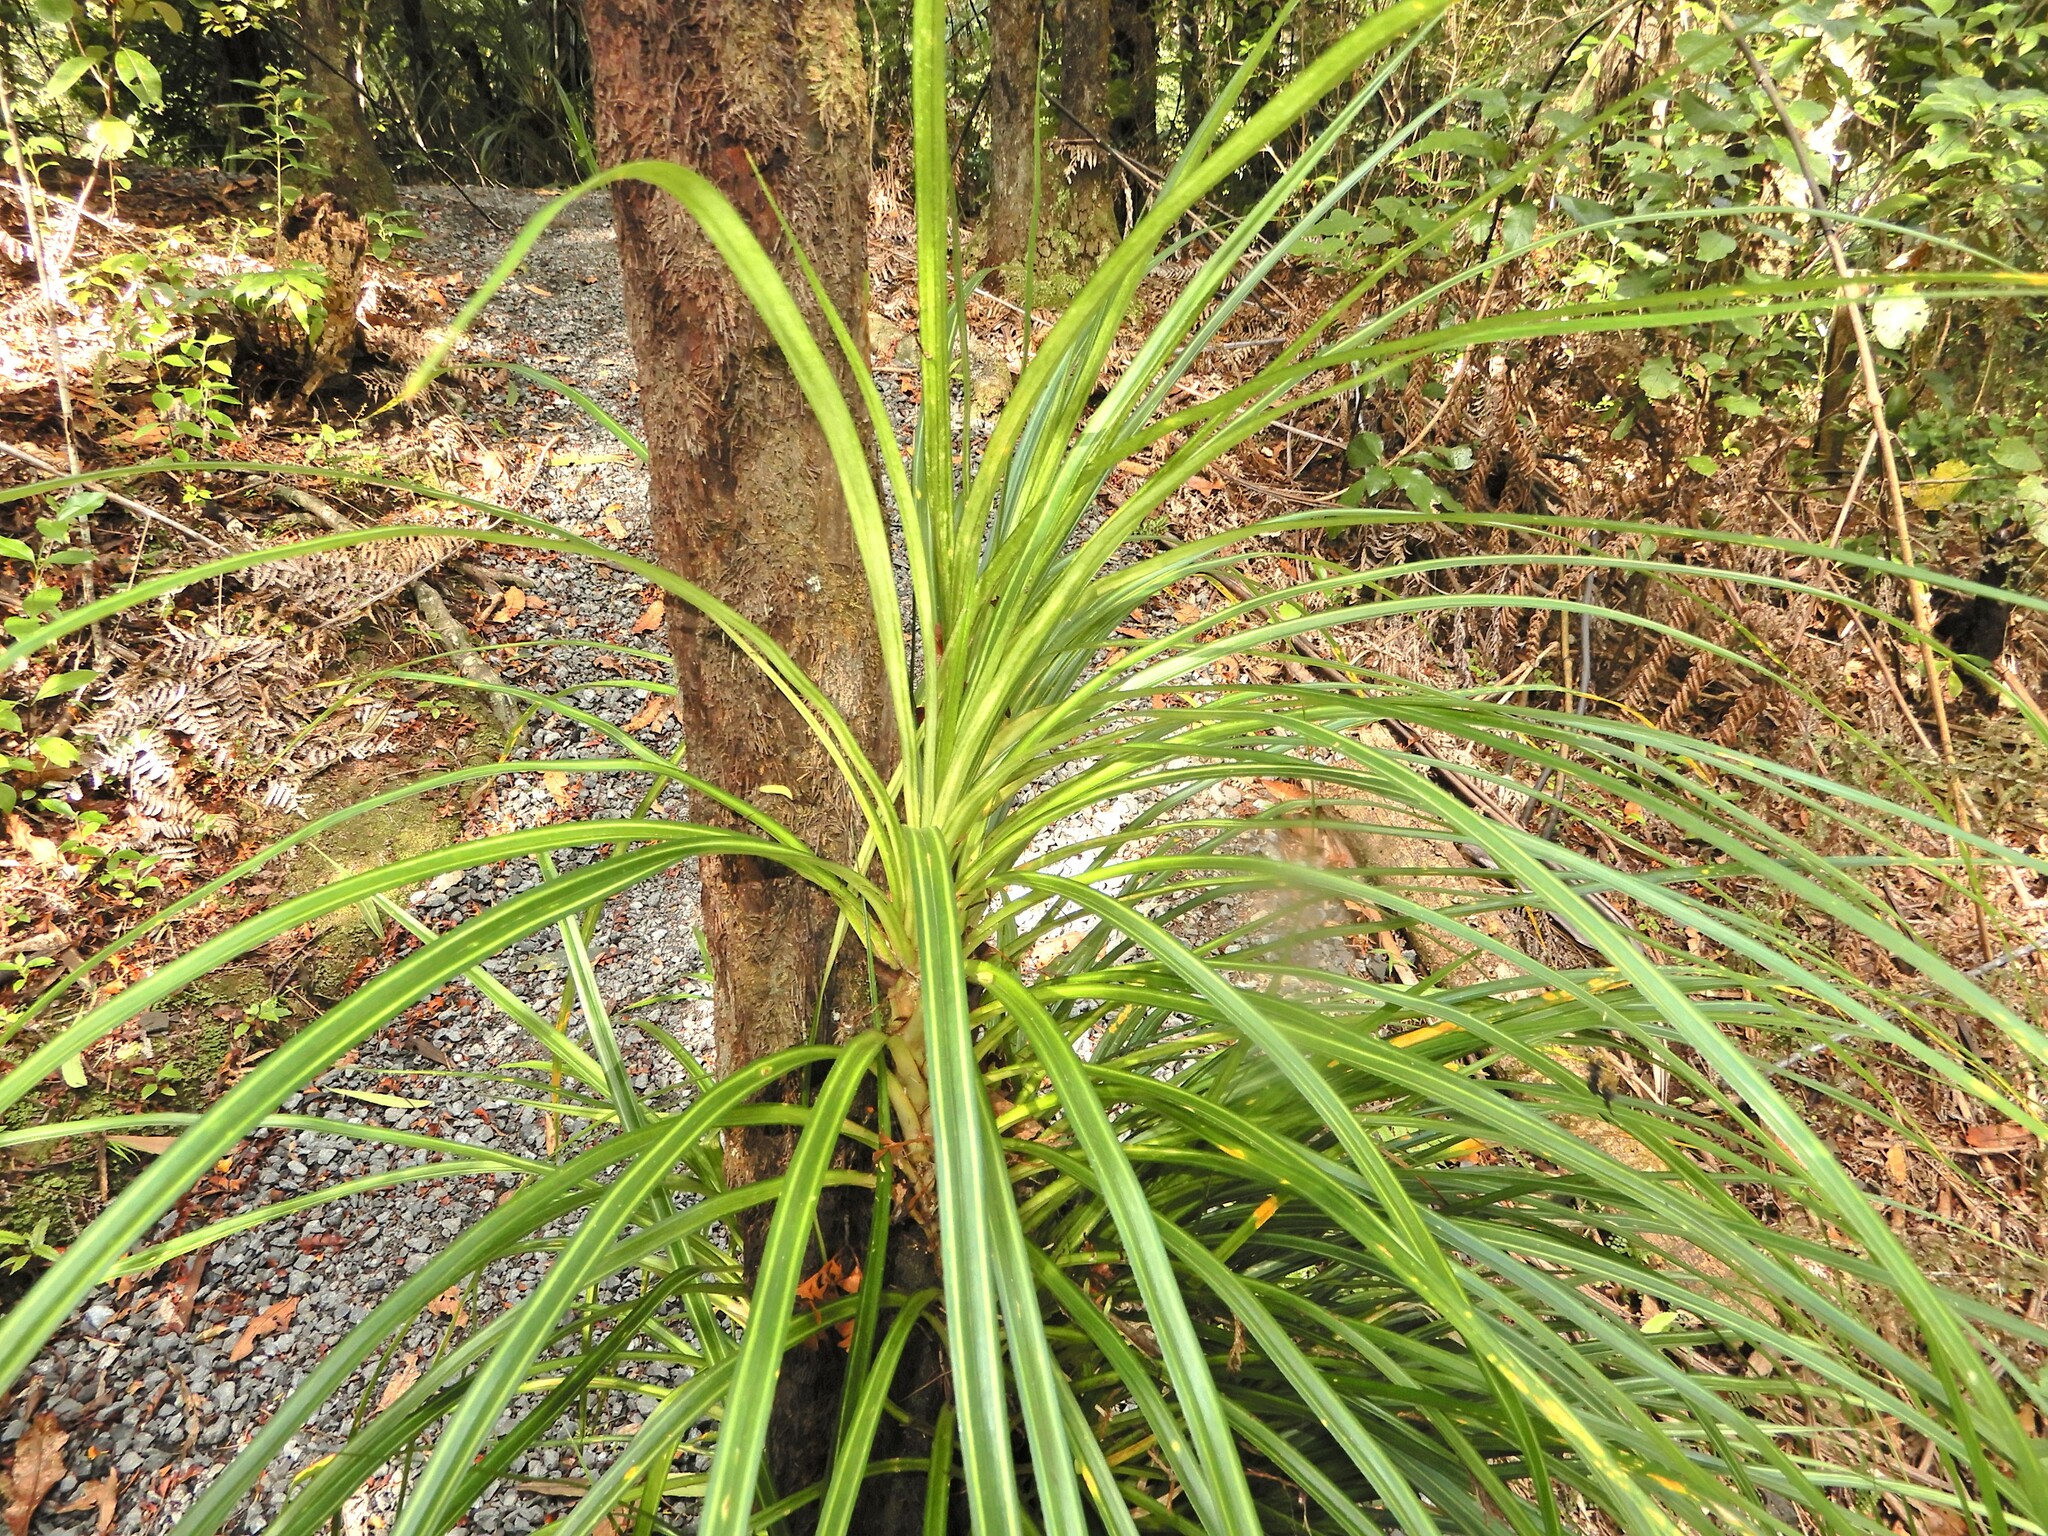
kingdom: Plantae
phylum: Tracheophyta
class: Liliopsida
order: Pandanales
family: Pandanaceae
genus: Freycinetia
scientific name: Freycinetia banksii
